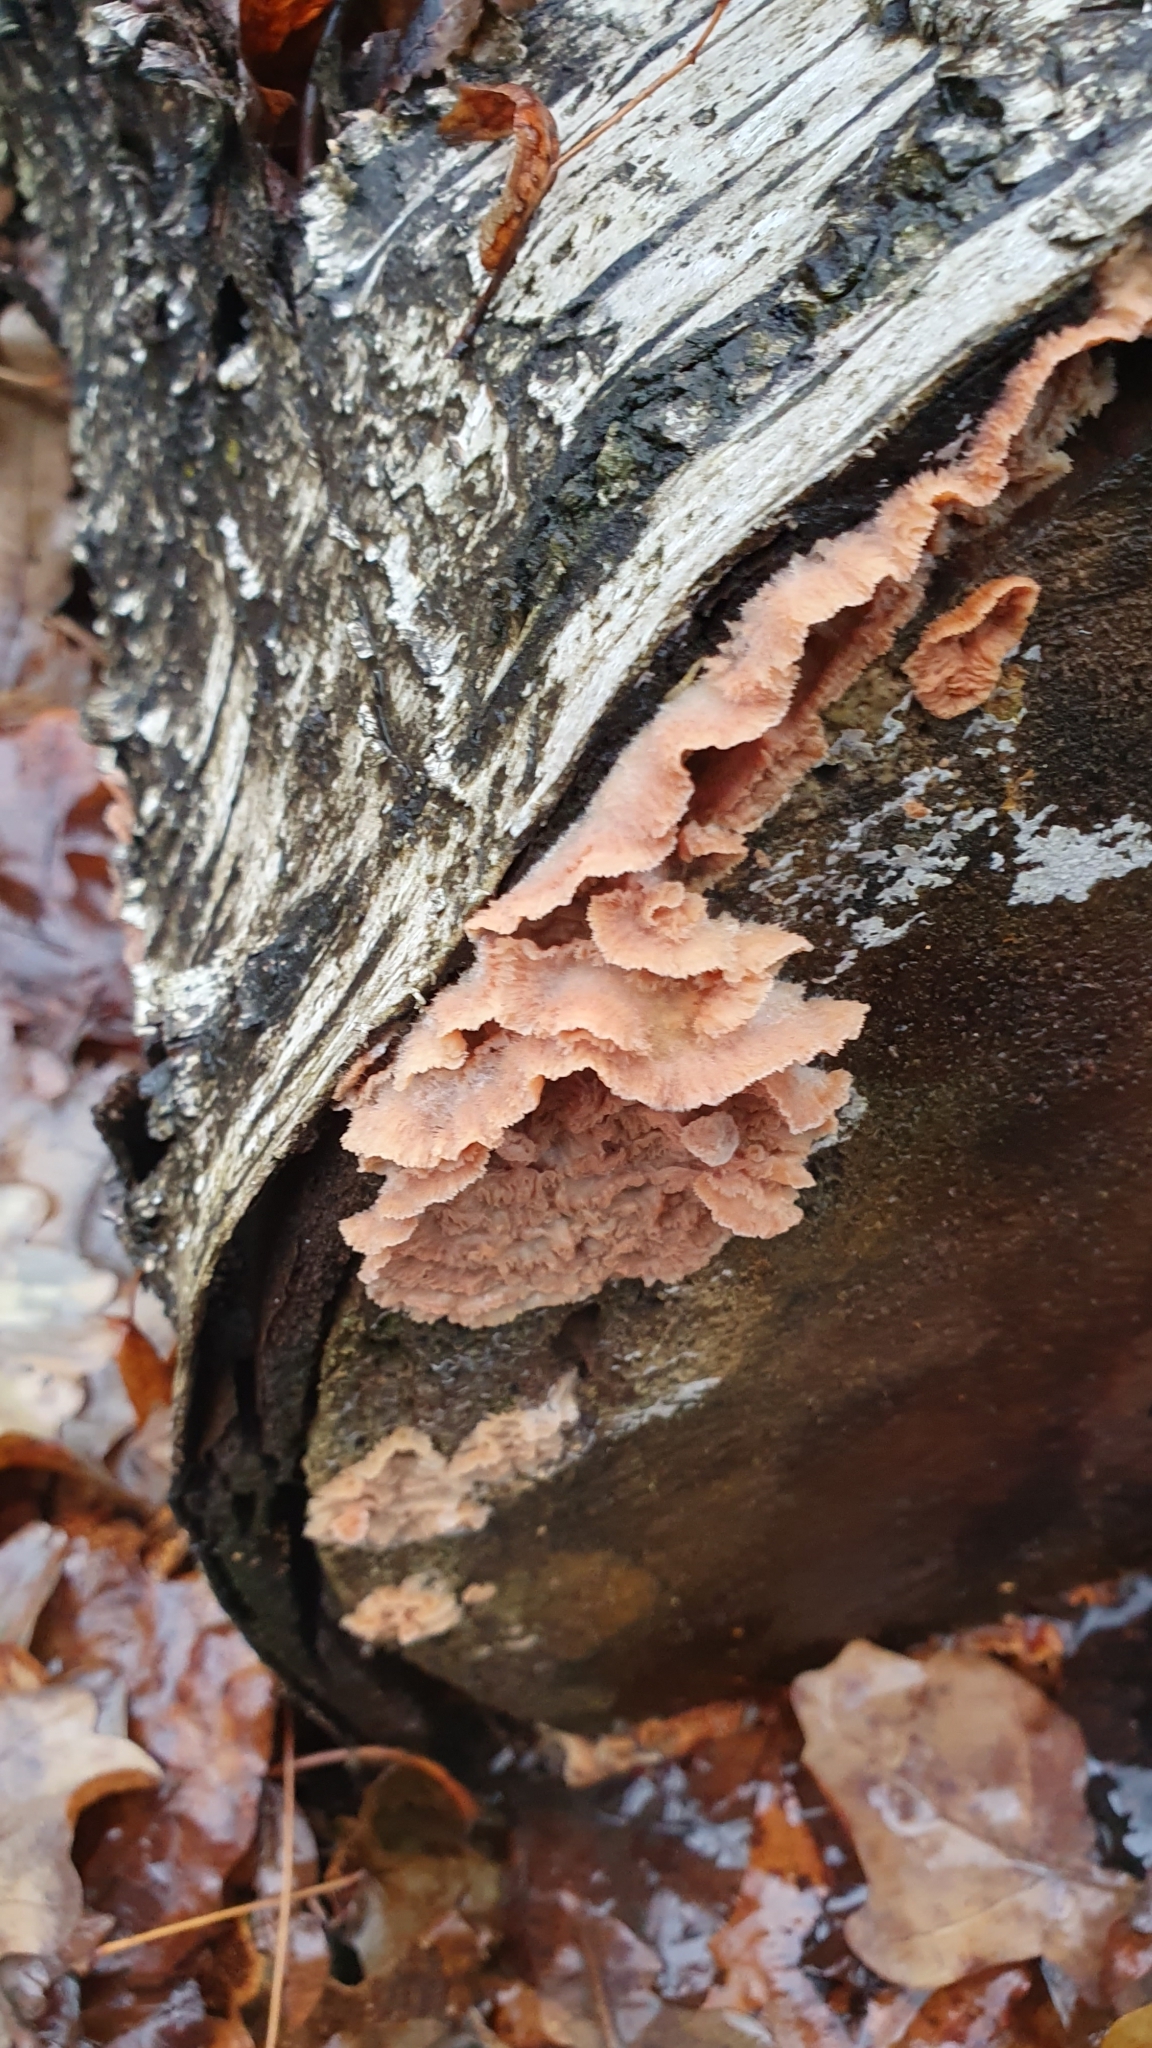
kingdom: Fungi
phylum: Basidiomycota
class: Agaricomycetes
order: Polyporales
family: Meruliaceae
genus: Phlebia
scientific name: Phlebia tremellosa
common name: Jelly rot
